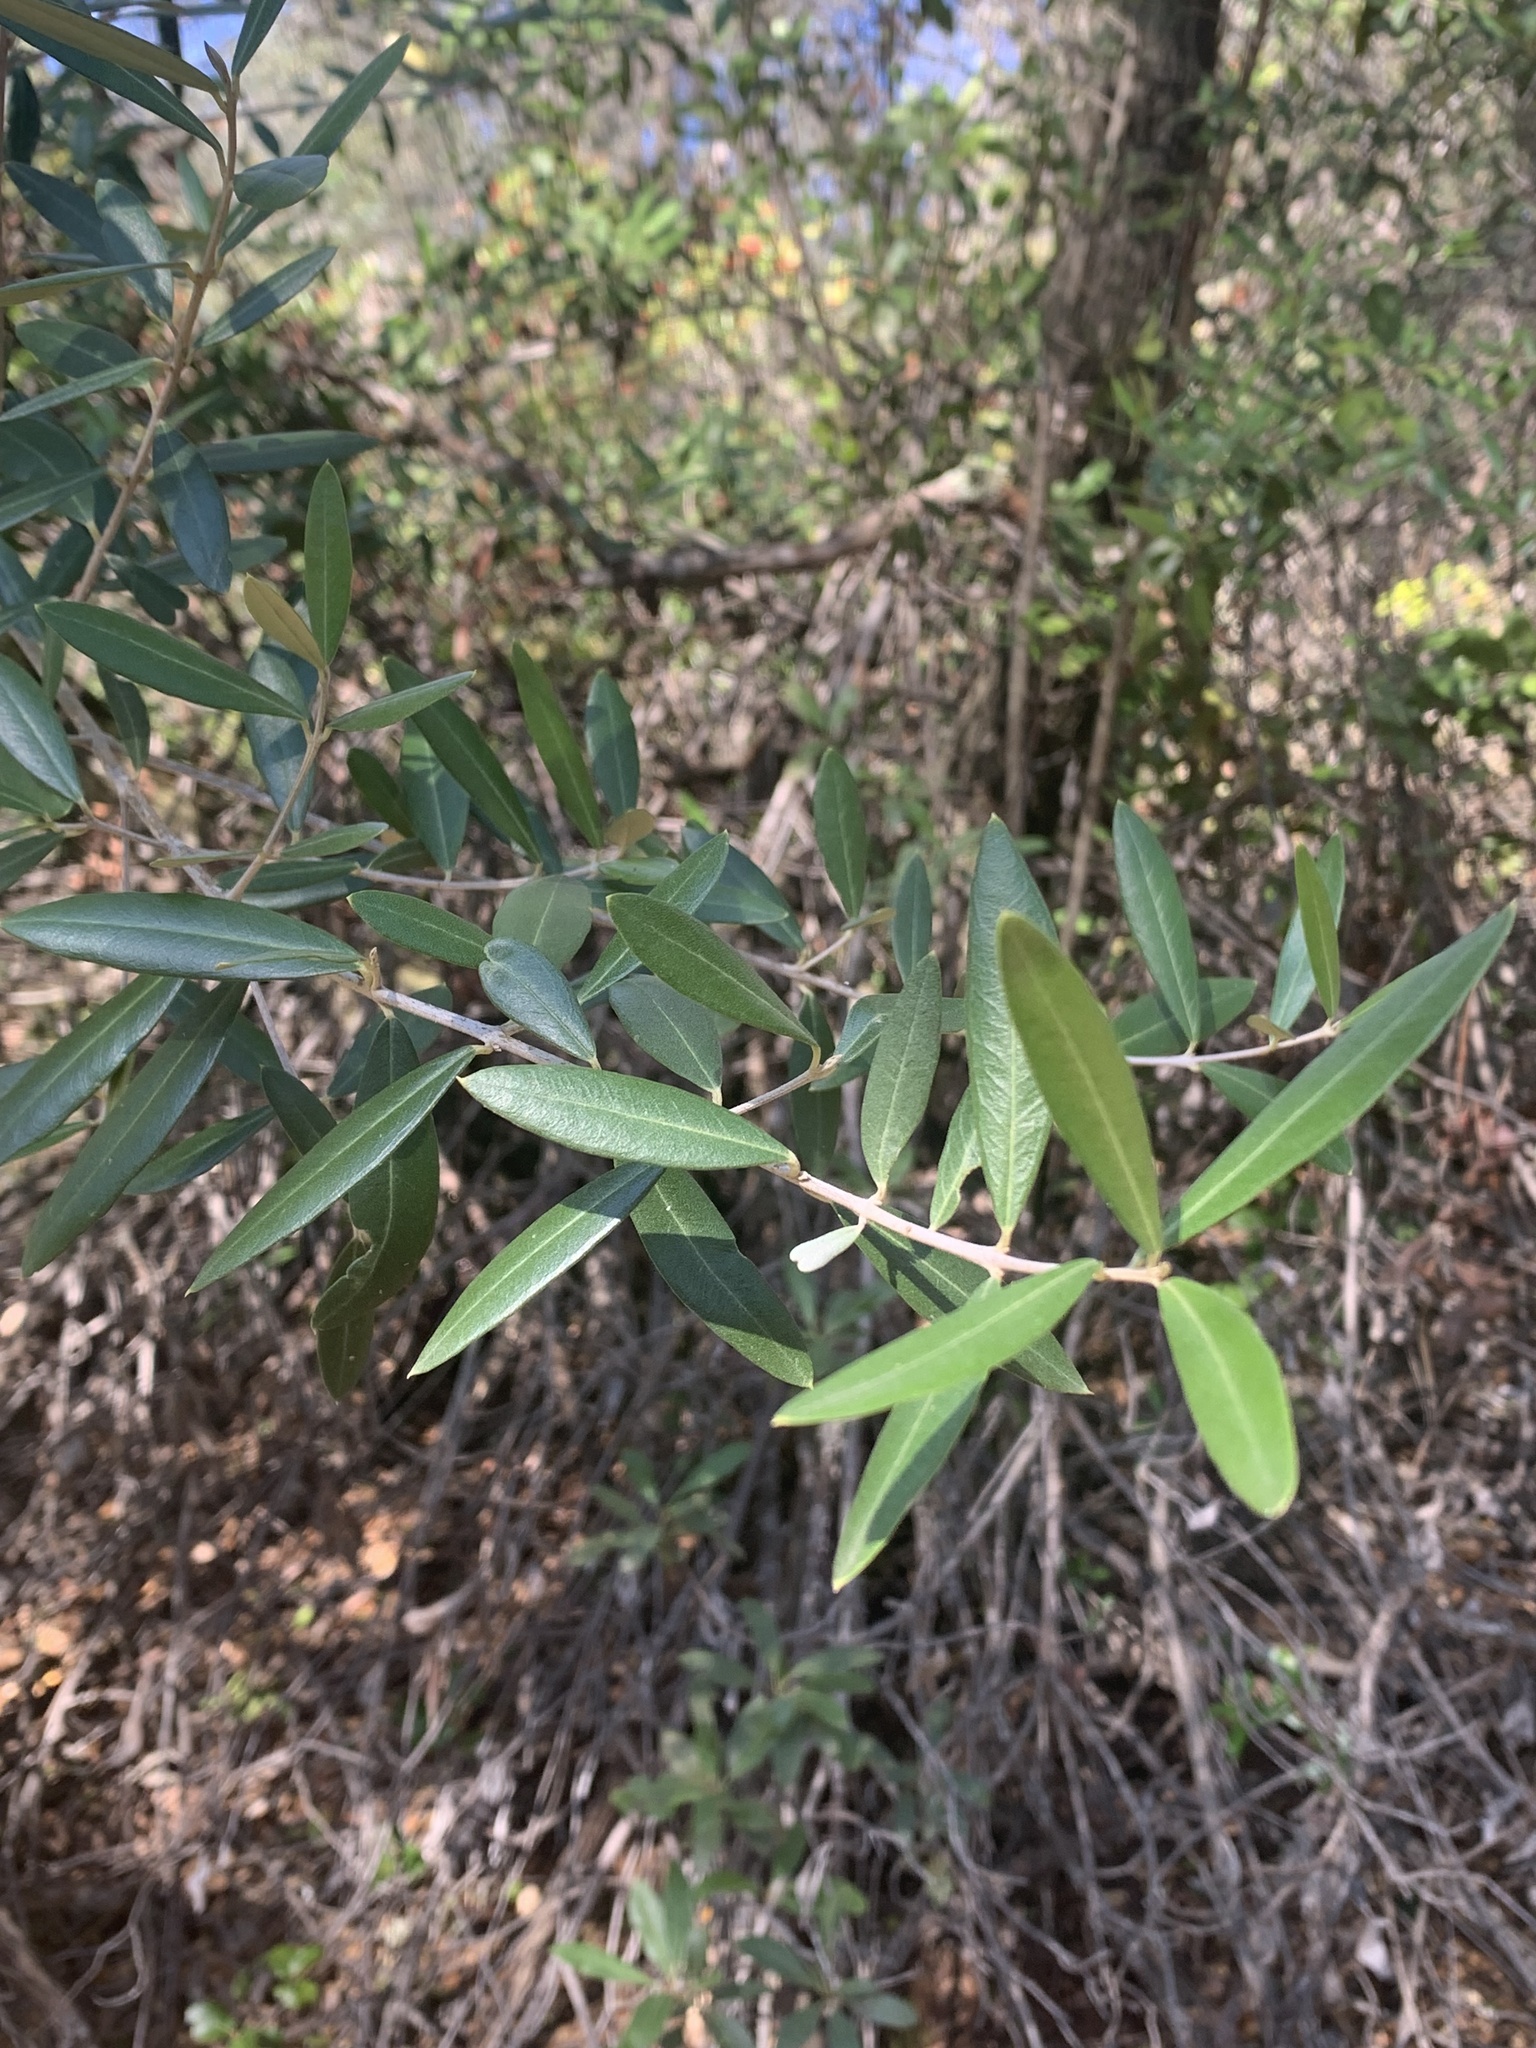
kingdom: Plantae
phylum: Tracheophyta
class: Magnoliopsida
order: Lamiales
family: Oleaceae
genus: Olea
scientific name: Olea europaea
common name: Olive
